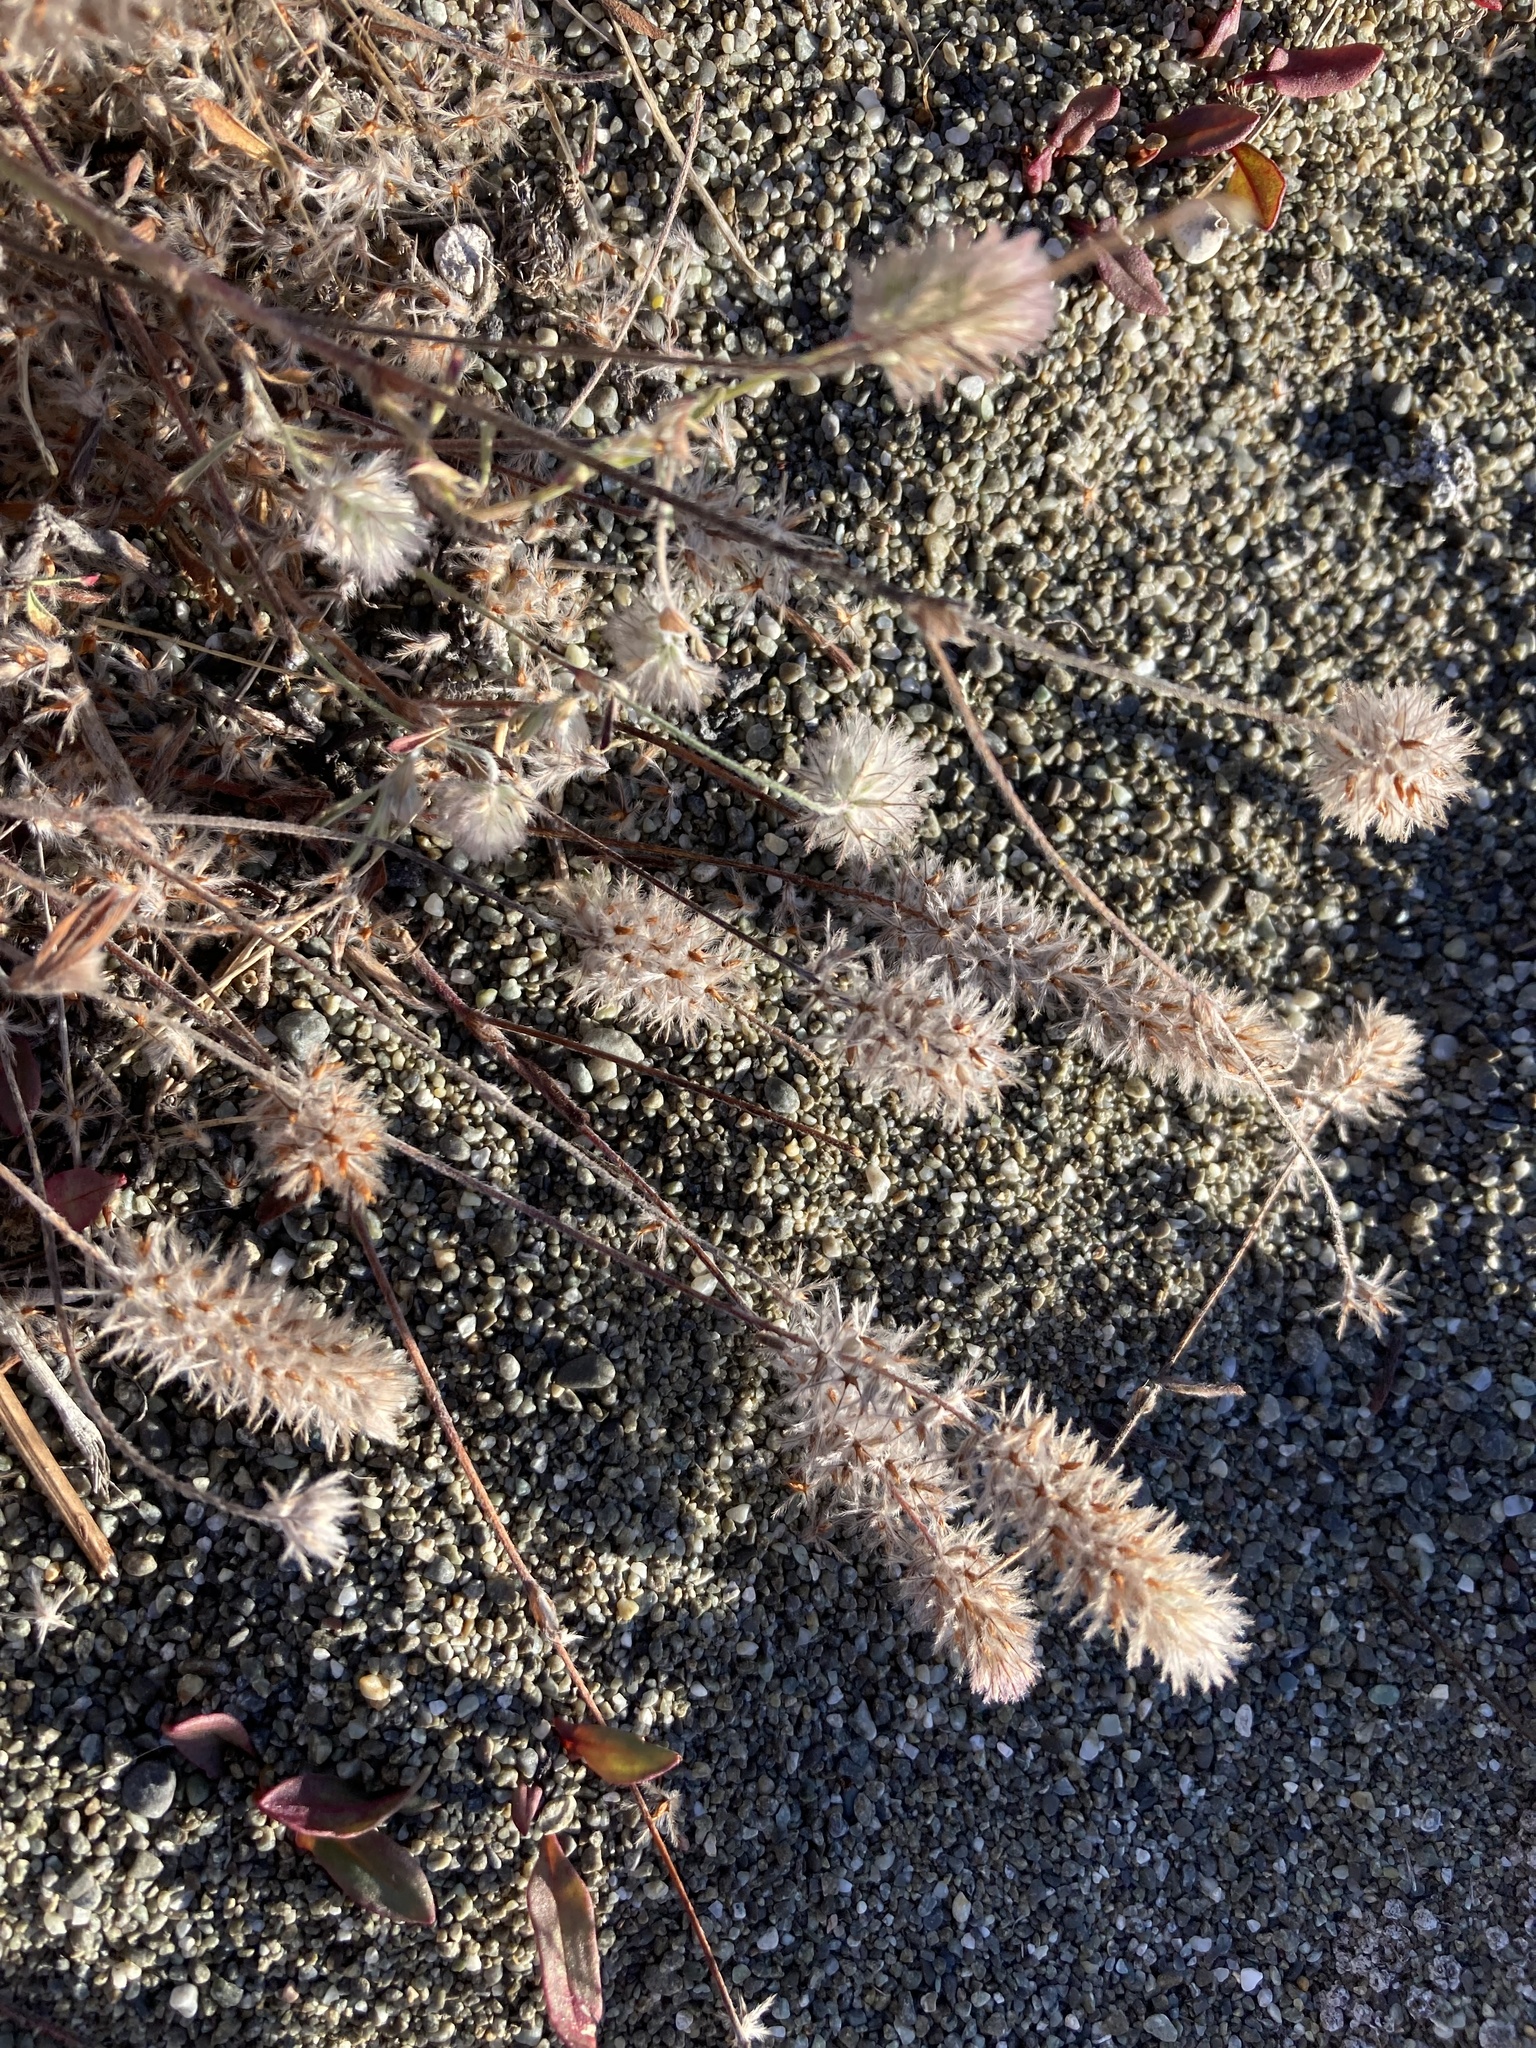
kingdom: Plantae
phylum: Tracheophyta
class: Magnoliopsida
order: Fabales
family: Fabaceae
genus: Trifolium
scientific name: Trifolium arvense
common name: Hare's-foot clover
